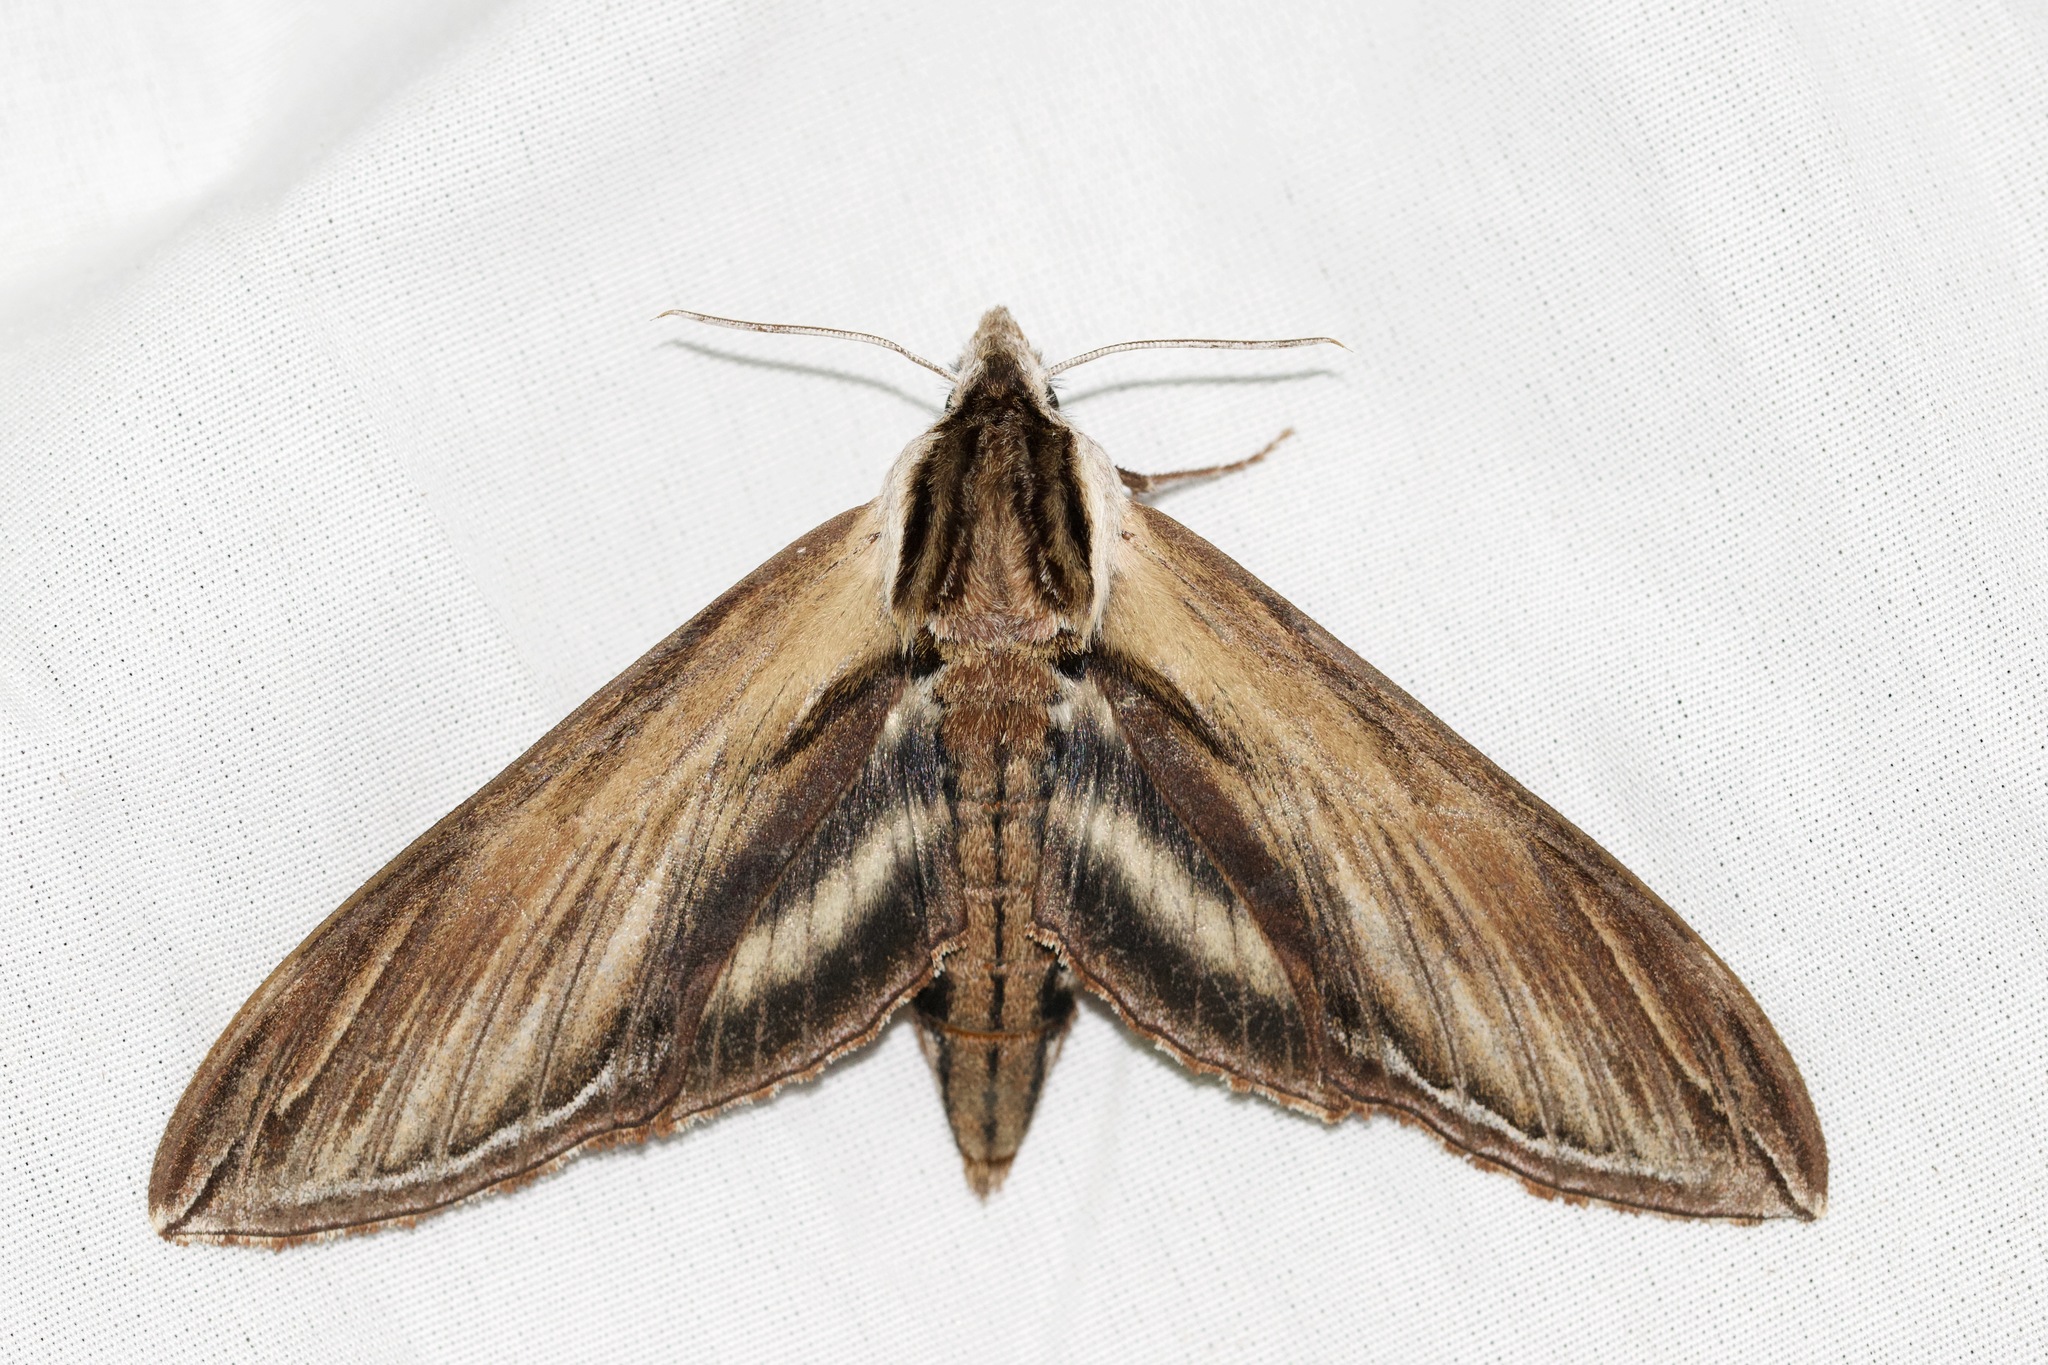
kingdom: Animalia
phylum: Arthropoda
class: Insecta
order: Lepidoptera
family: Sphingidae
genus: Sphinx
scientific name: Sphinx kalmiae
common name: Laurel sphinx
